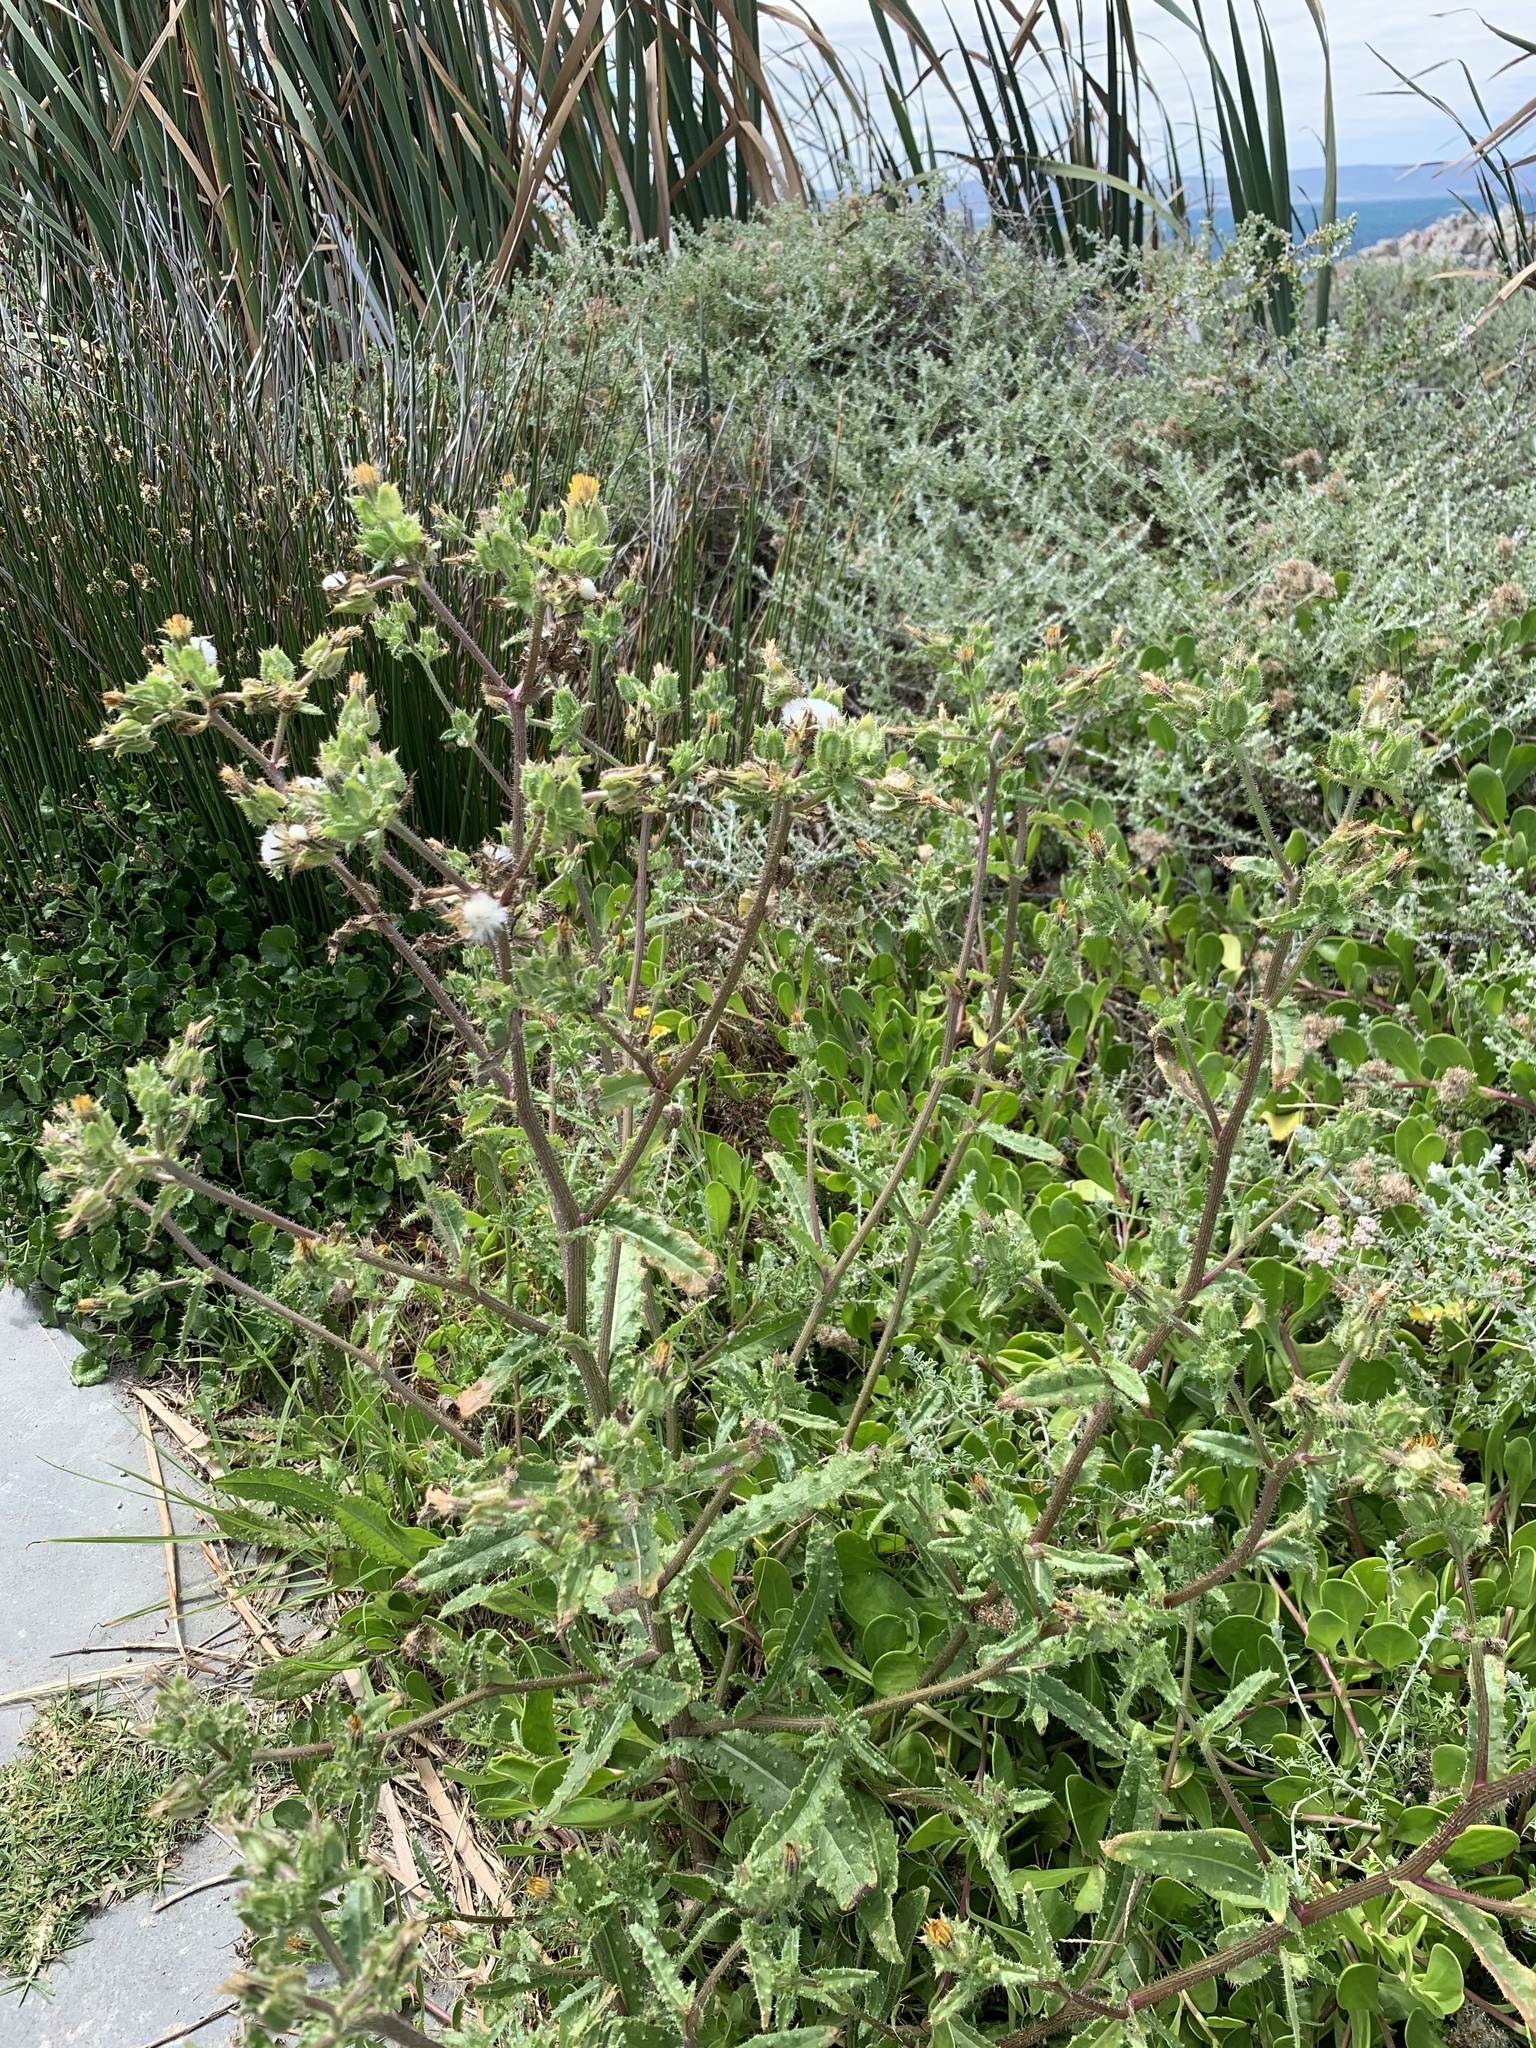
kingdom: Plantae
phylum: Tracheophyta
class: Magnoliopsida
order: Asterales
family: Asteraceae
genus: Helminthotheca
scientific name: Helminthotheca echioides
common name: Ox-tongue
